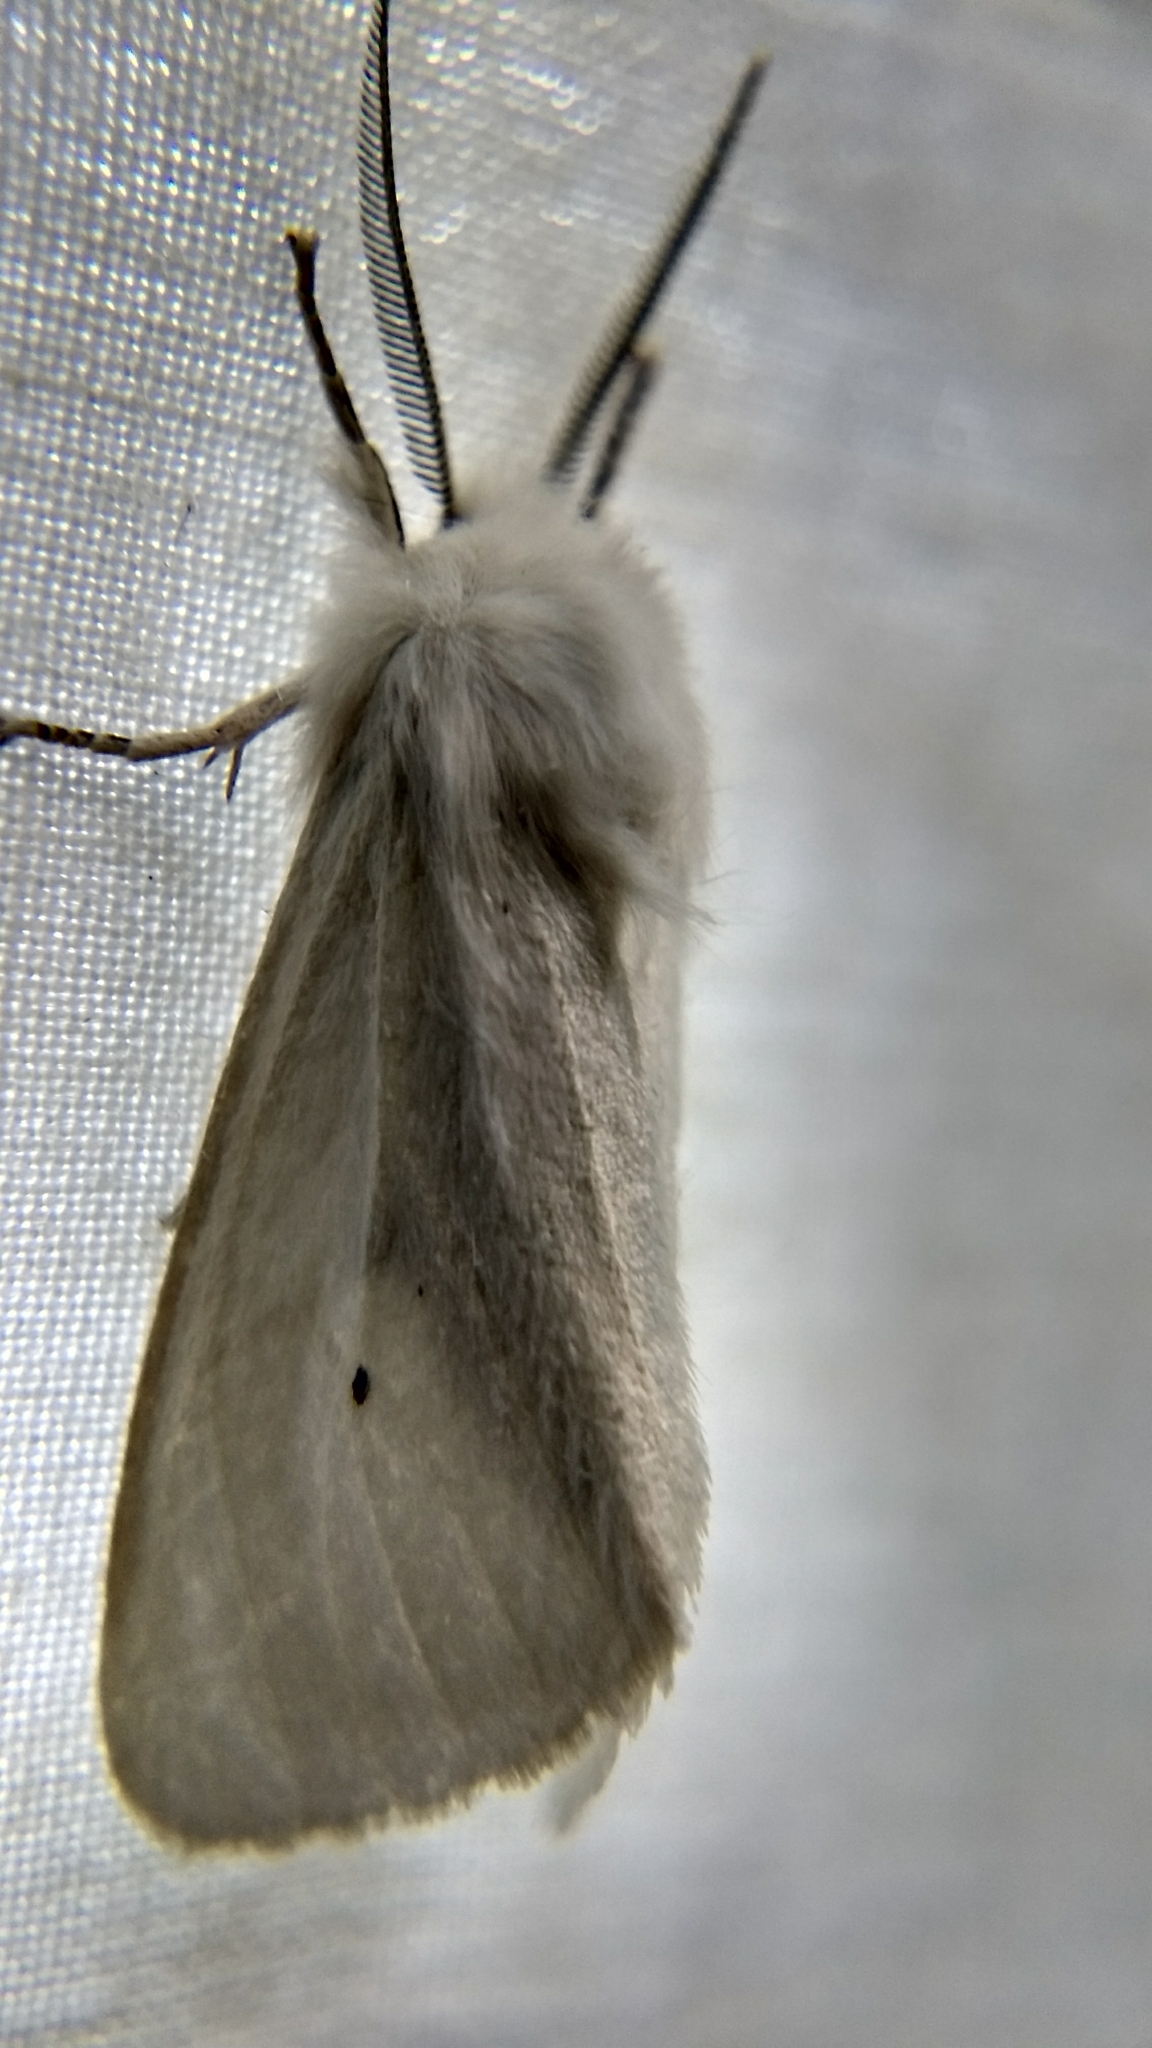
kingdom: Animalia
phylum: Arthropoda
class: Insecta
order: Lepidoptera
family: Erebidae
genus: Spilosoma
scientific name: Spilosoma virginica
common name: Virginia tiger moth
